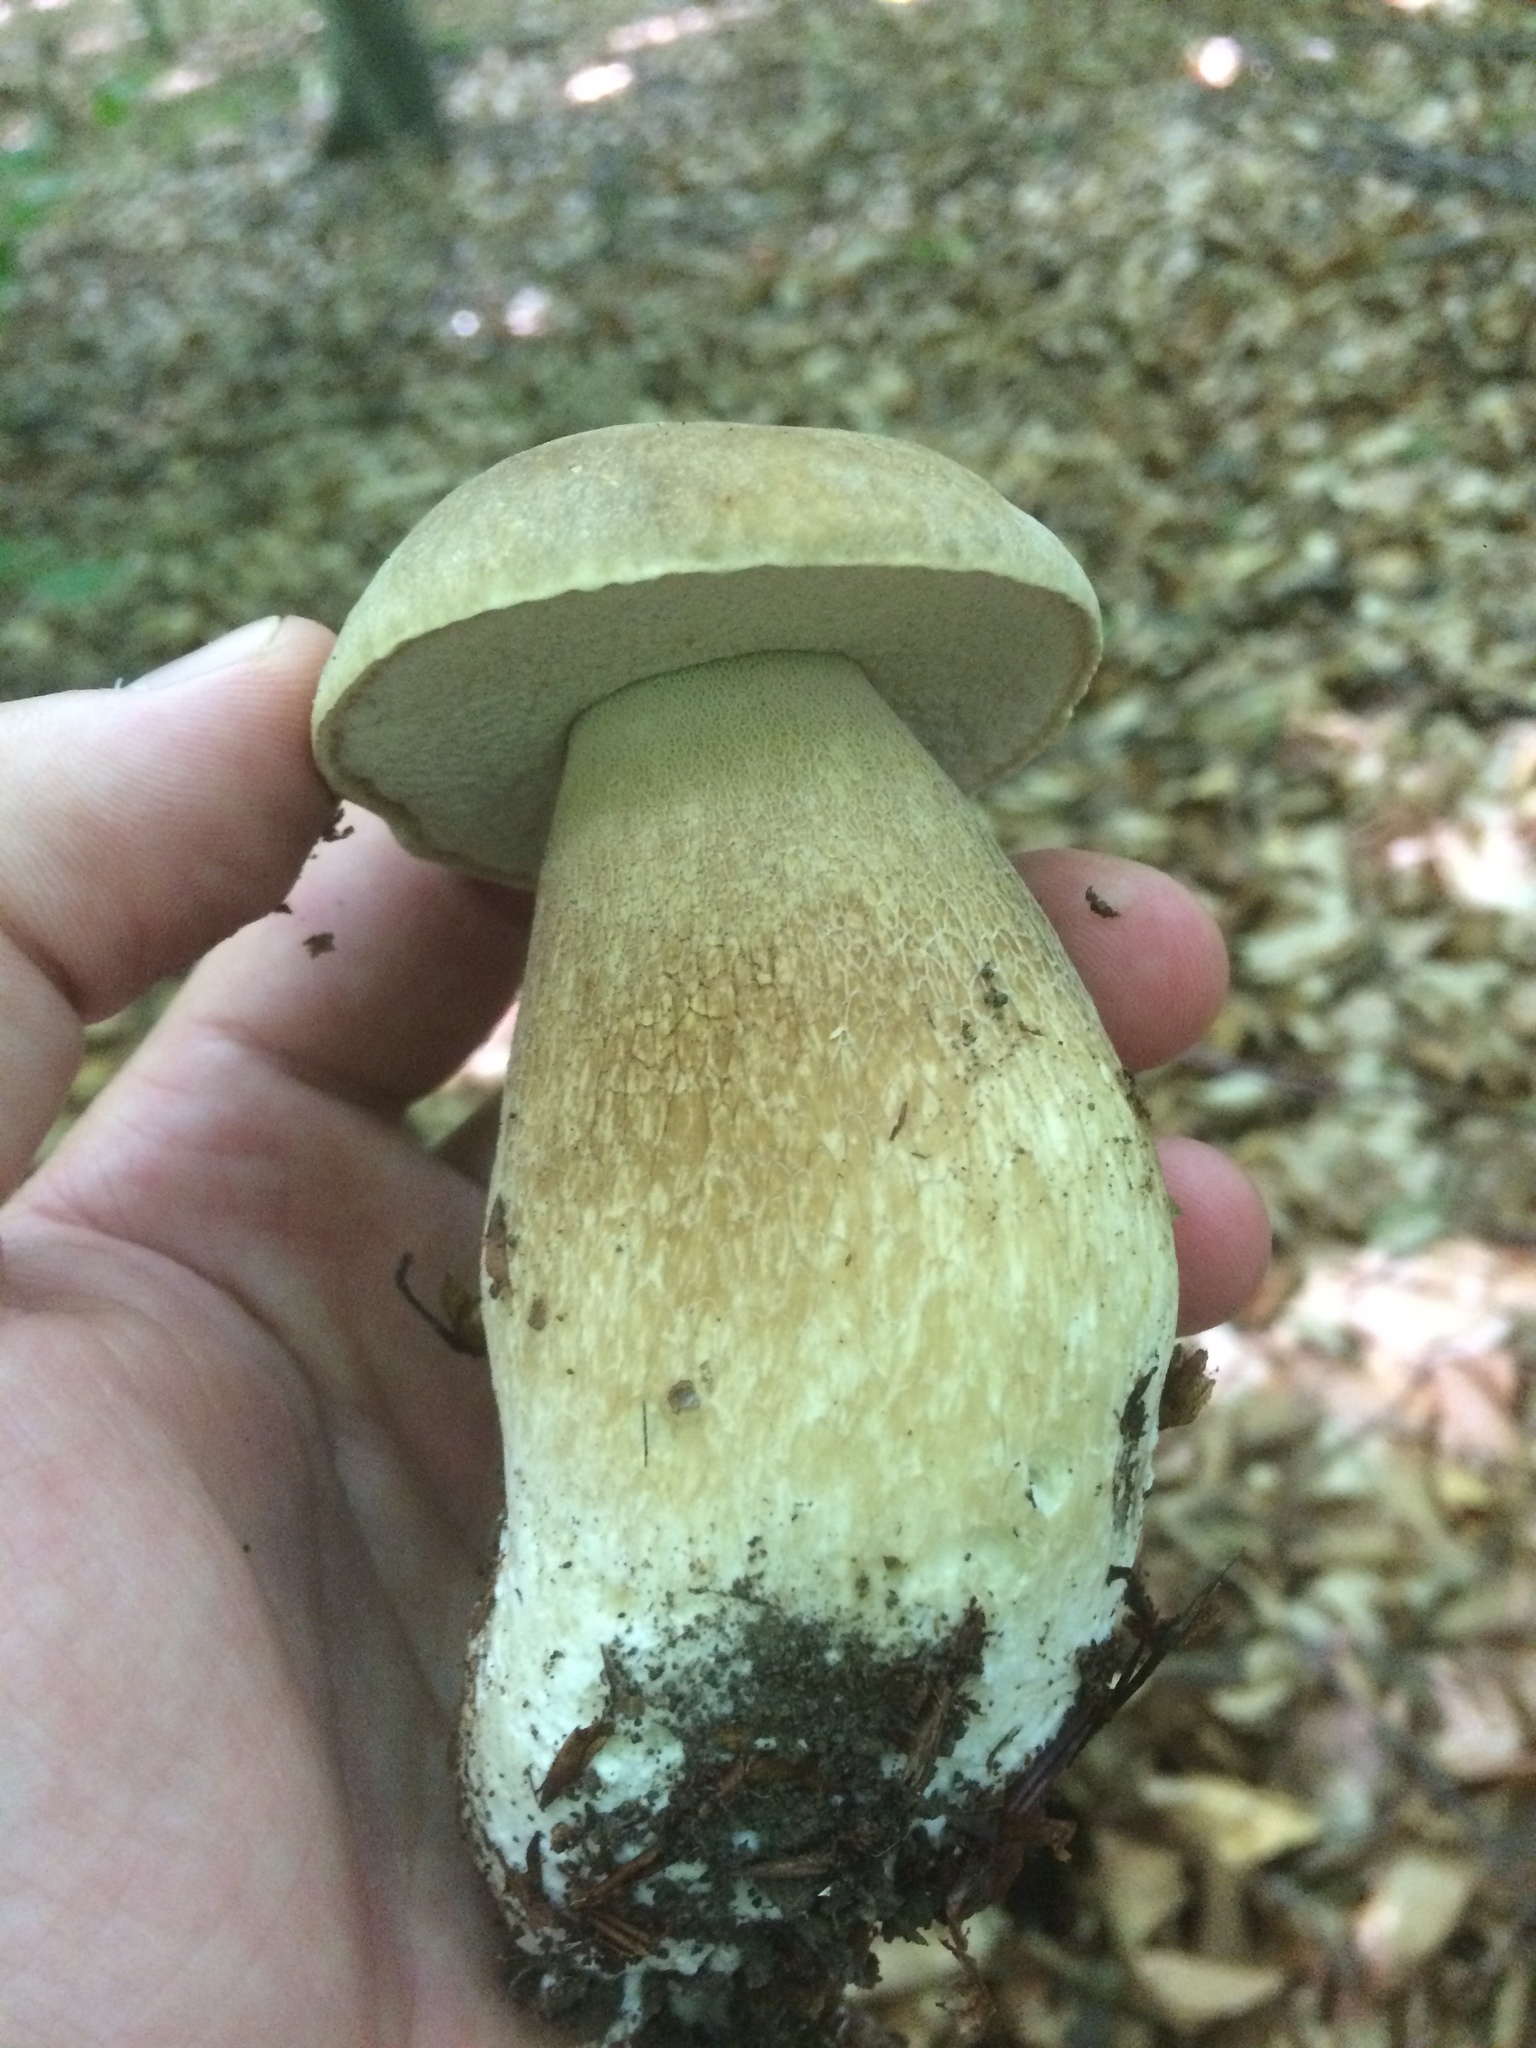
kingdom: Fungi
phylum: Basidiomycota
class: Agaricomycetes
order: Boletales
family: Boletaceae
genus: Boletus
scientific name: Boletus reticulatus
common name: Summer bolete
